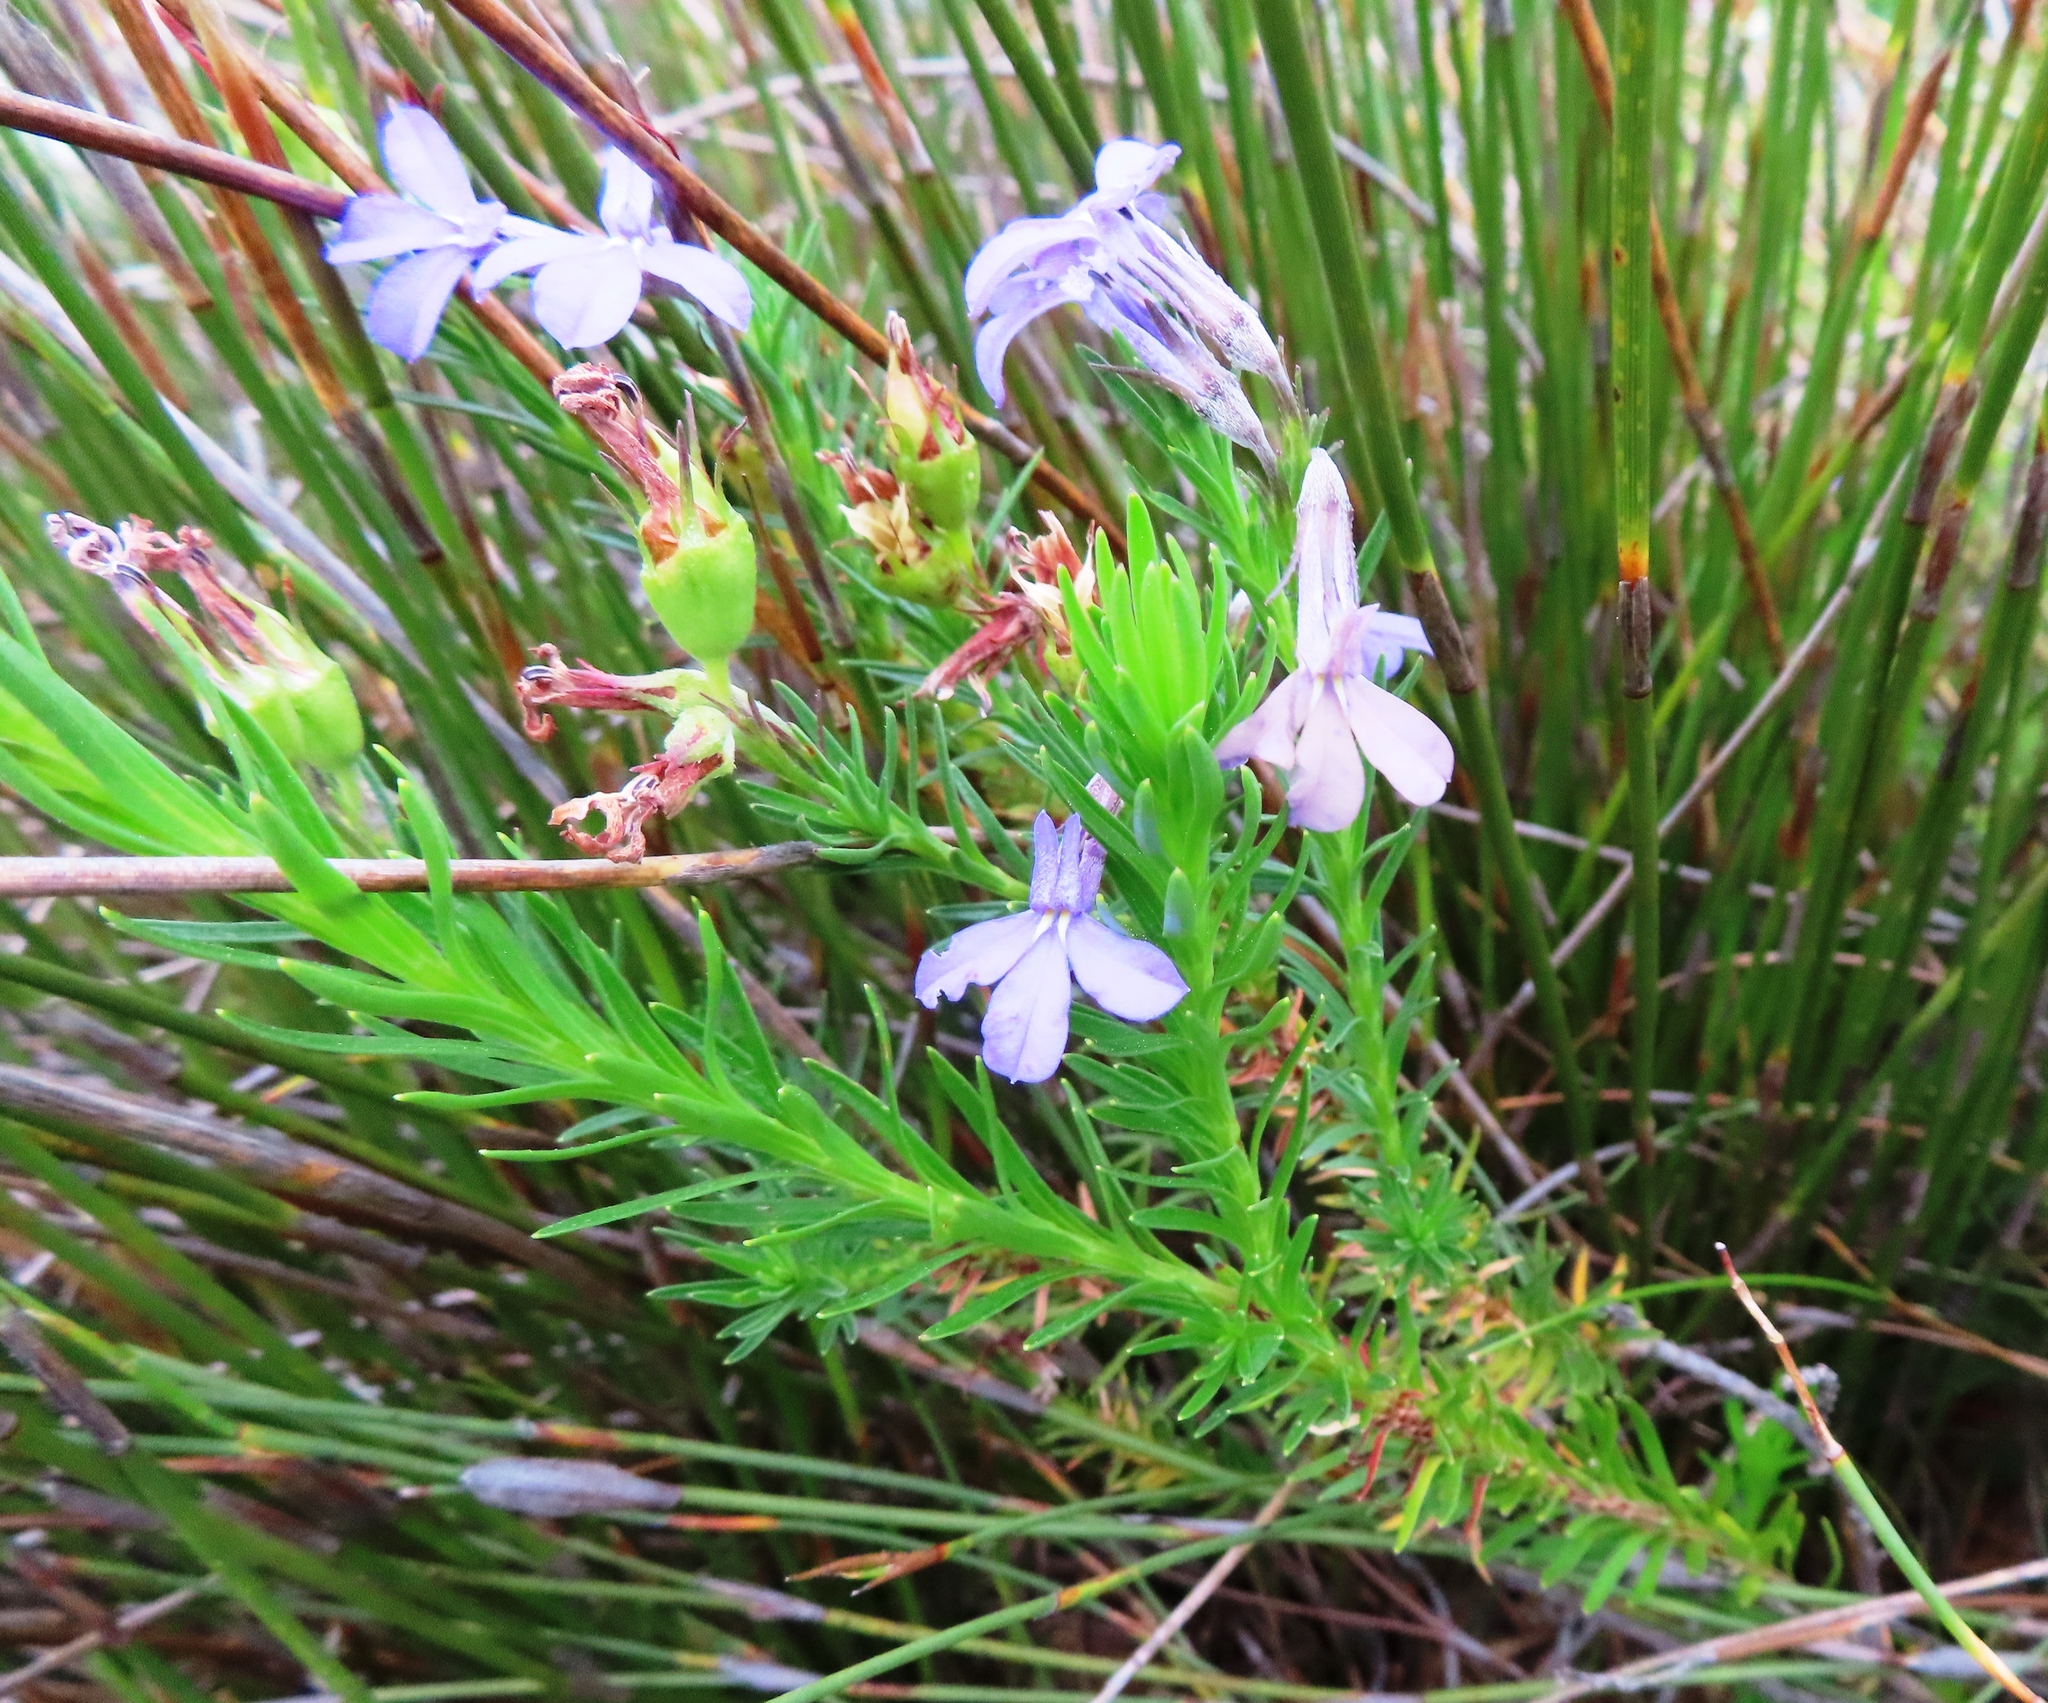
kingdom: Plantae
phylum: Tracheophyta
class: Magnoliopsida
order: Asterales
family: Campanulaceae
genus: Lobelia
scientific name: Lobelia pinifolia
